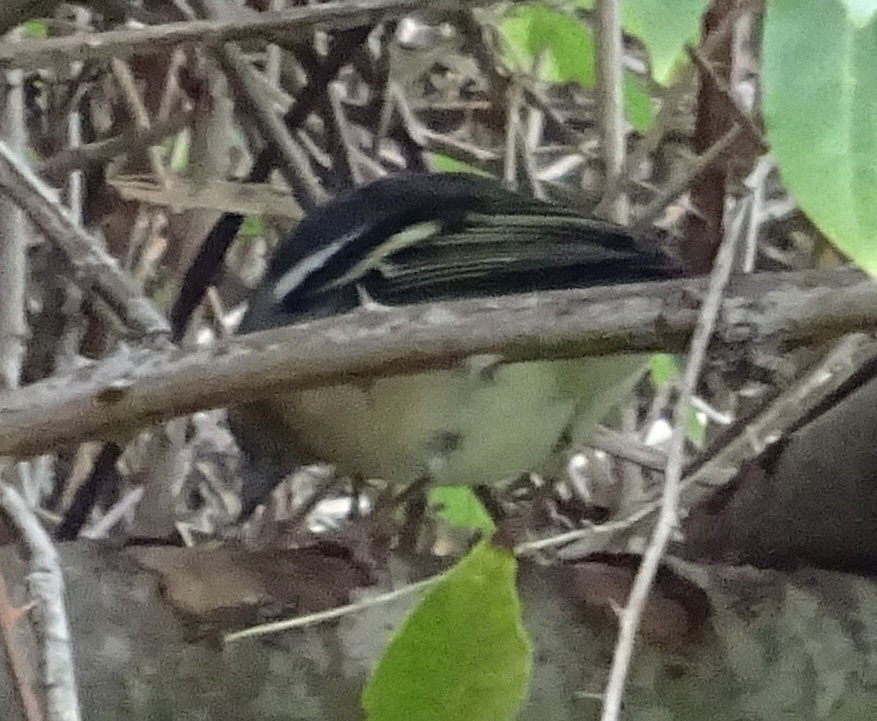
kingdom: Animalia
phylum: Chordata
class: Aves
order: Passeriformes
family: Fringillidae
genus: Fringilla
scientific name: Fringilla canariensis
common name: Canary islands chaffinch
